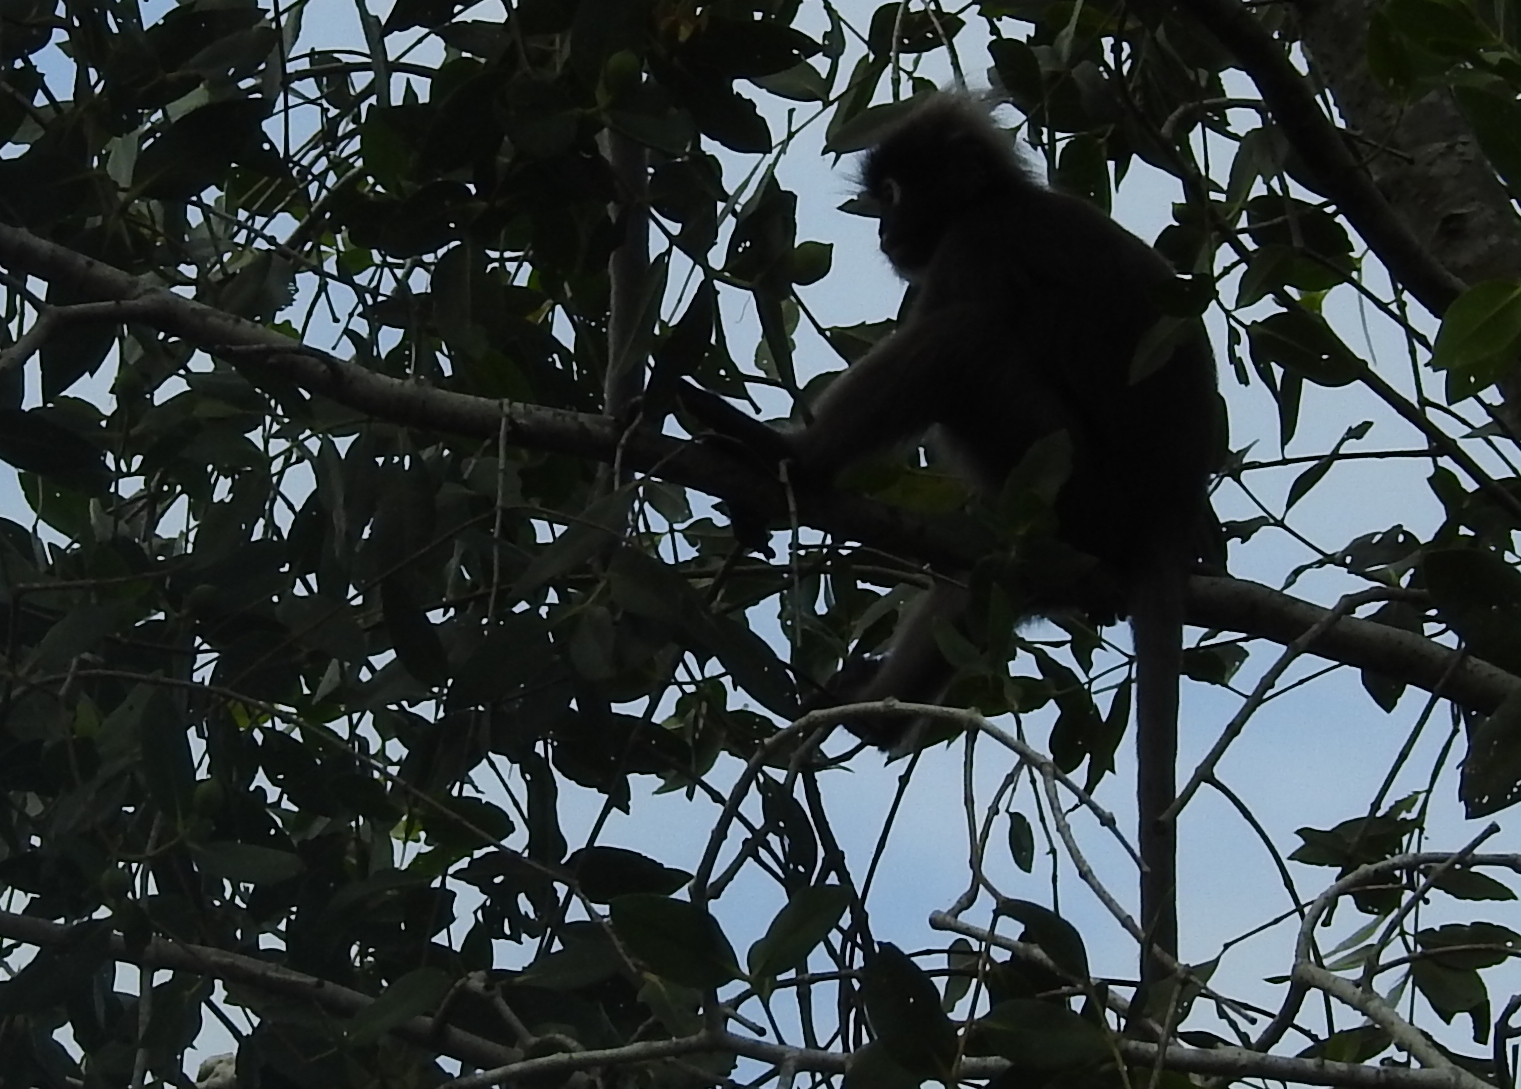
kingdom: Animalia
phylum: Chordata
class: Mammalia
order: Primates
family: Cercopithecidae
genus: Trachypithecus
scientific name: Trachypithecus obscurus
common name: Dusky leaf-monkey
